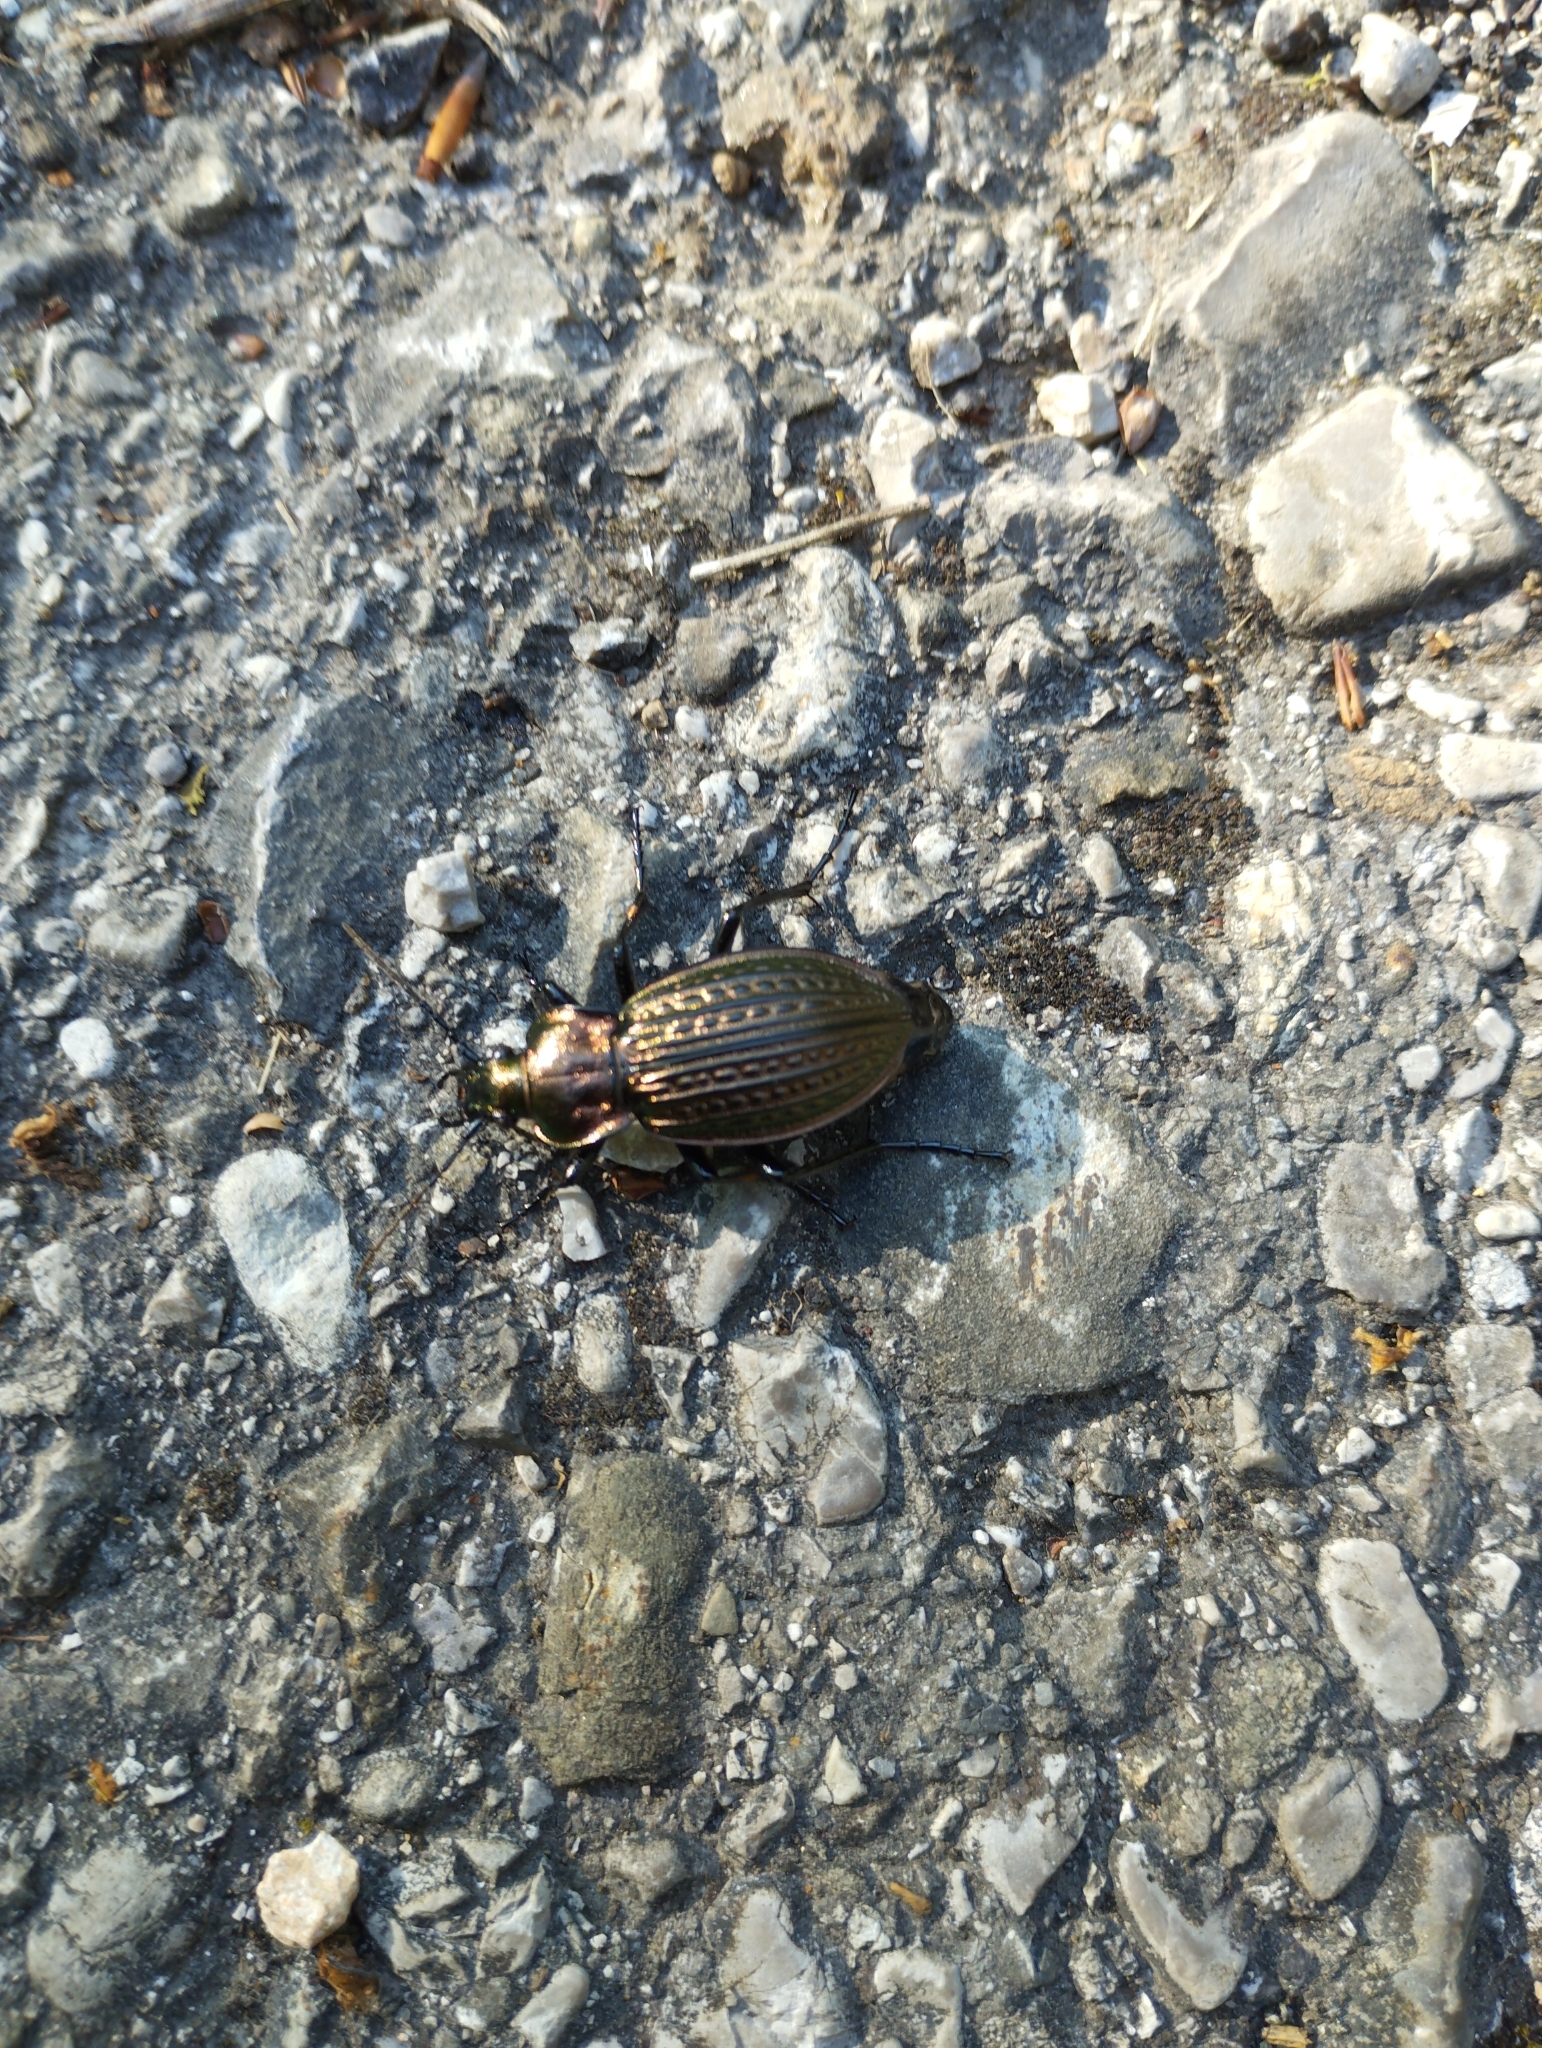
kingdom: Animalia
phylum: Arthropoda
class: Insecta
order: Coleoptera
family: Carabidae
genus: Carabus
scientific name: Carabus ulrichii
